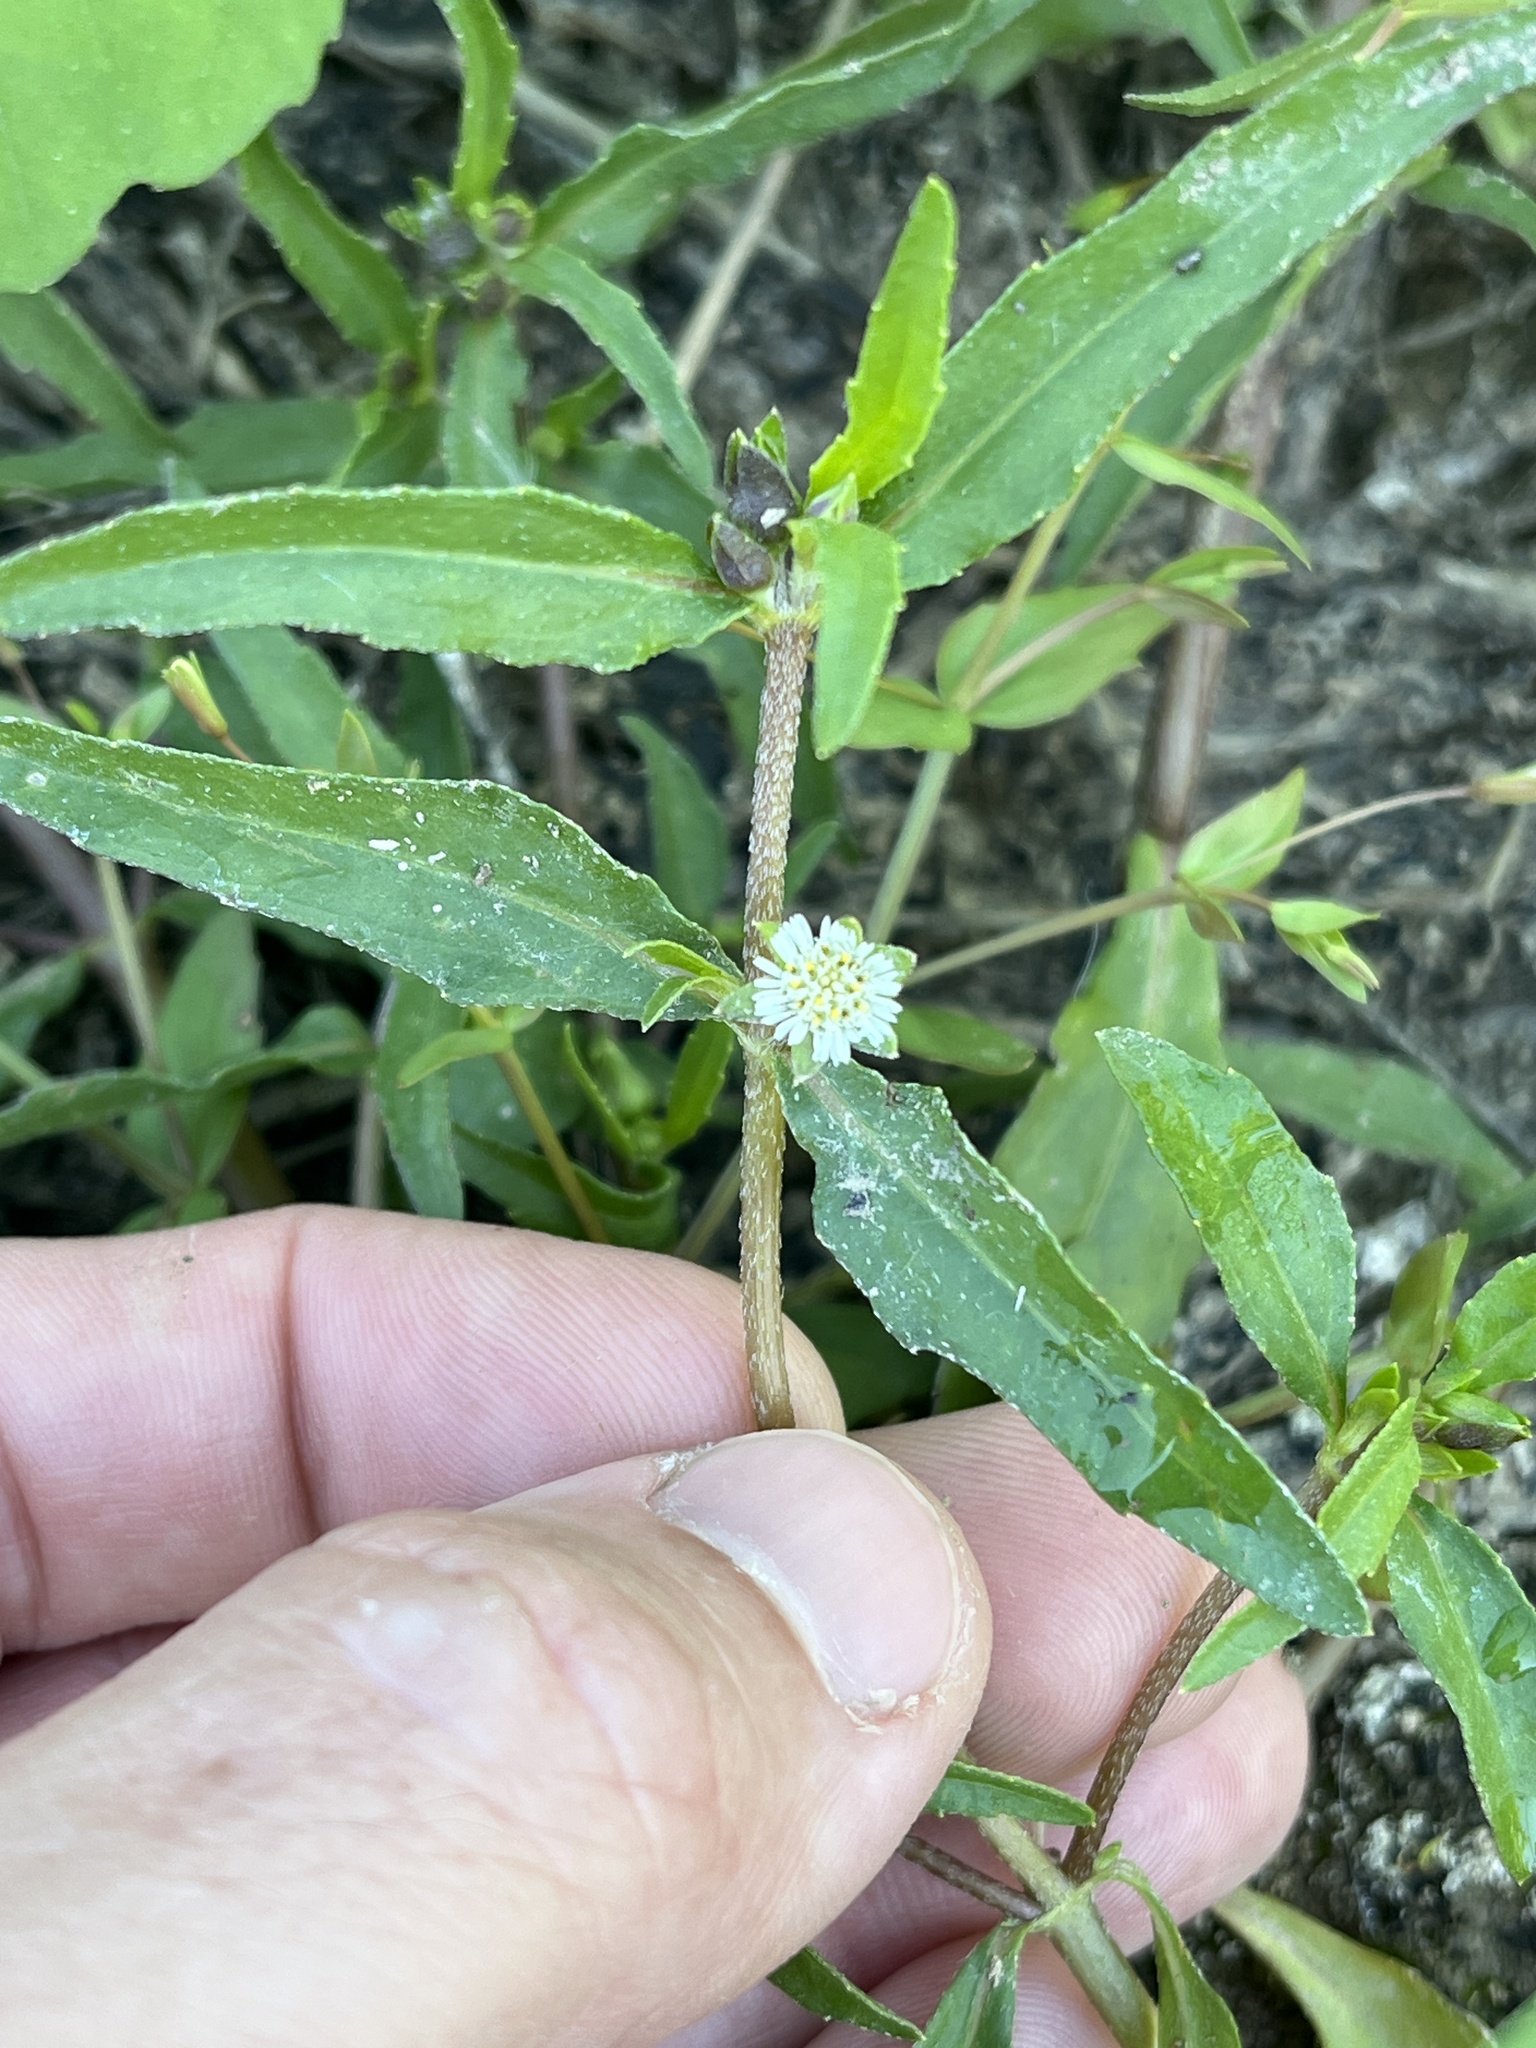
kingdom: Plantae
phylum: Tracheophyta
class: Magnoliopsida
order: Asterales
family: Asteraceae
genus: Eclipta
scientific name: Eclipta prostrata
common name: False daisy
